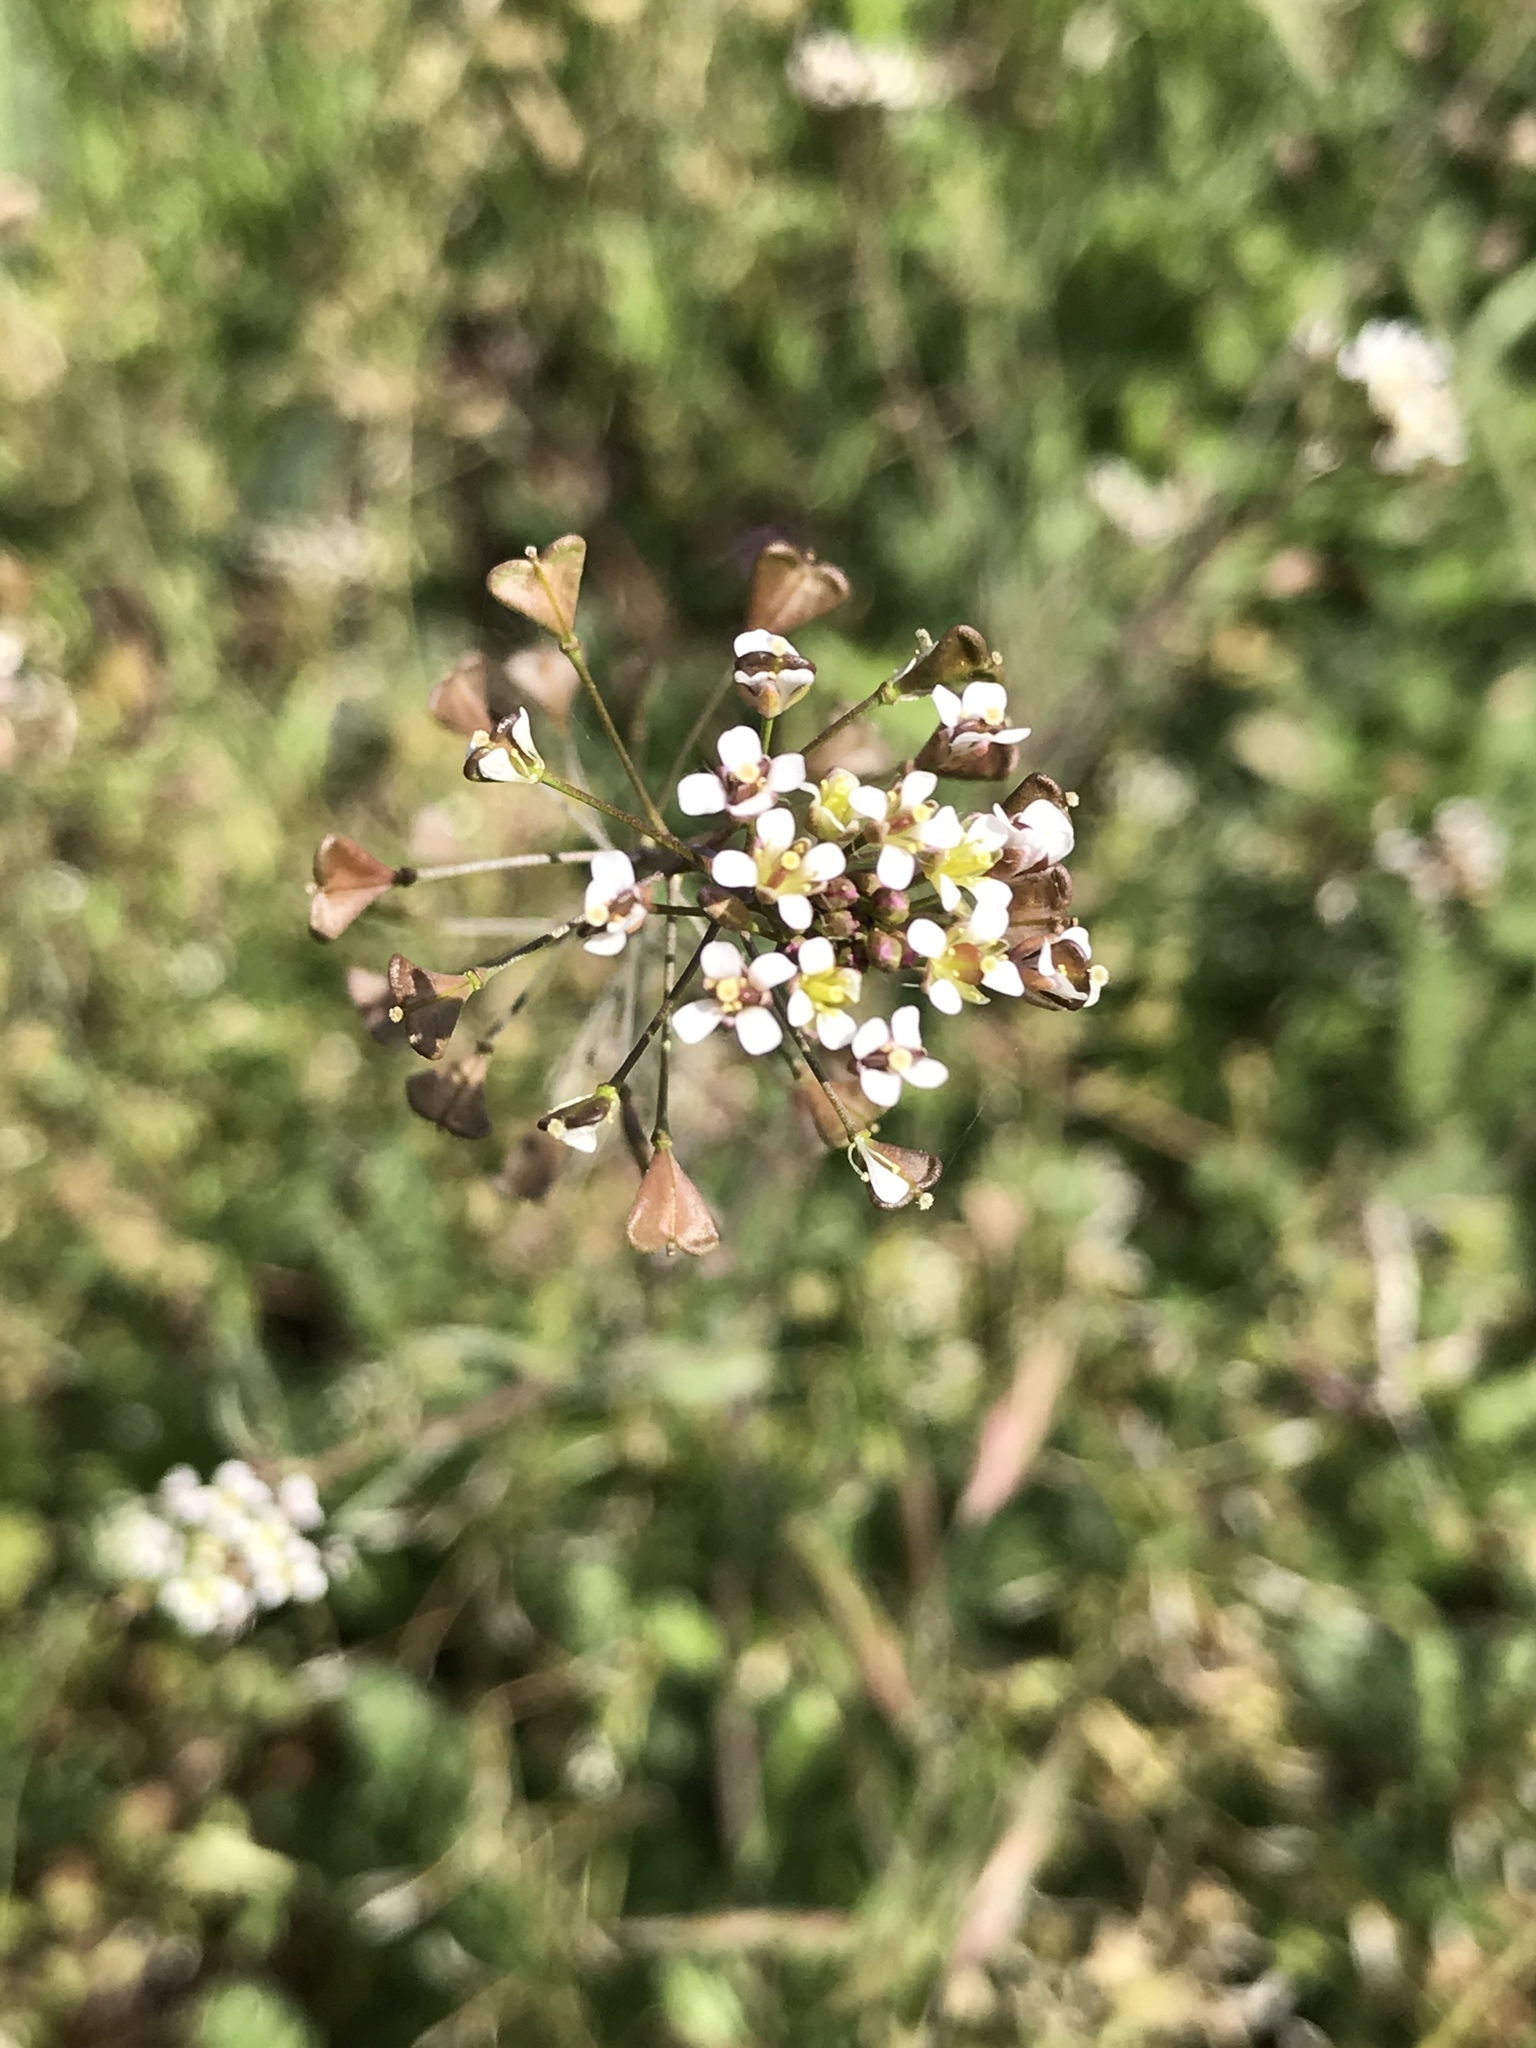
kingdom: Plantae
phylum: Tracheophyta
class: Magnoliopsida
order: Brassicales
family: Brassicaceae
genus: Capsella
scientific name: Capsella bursa-pastoris
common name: Shepherd's purse
